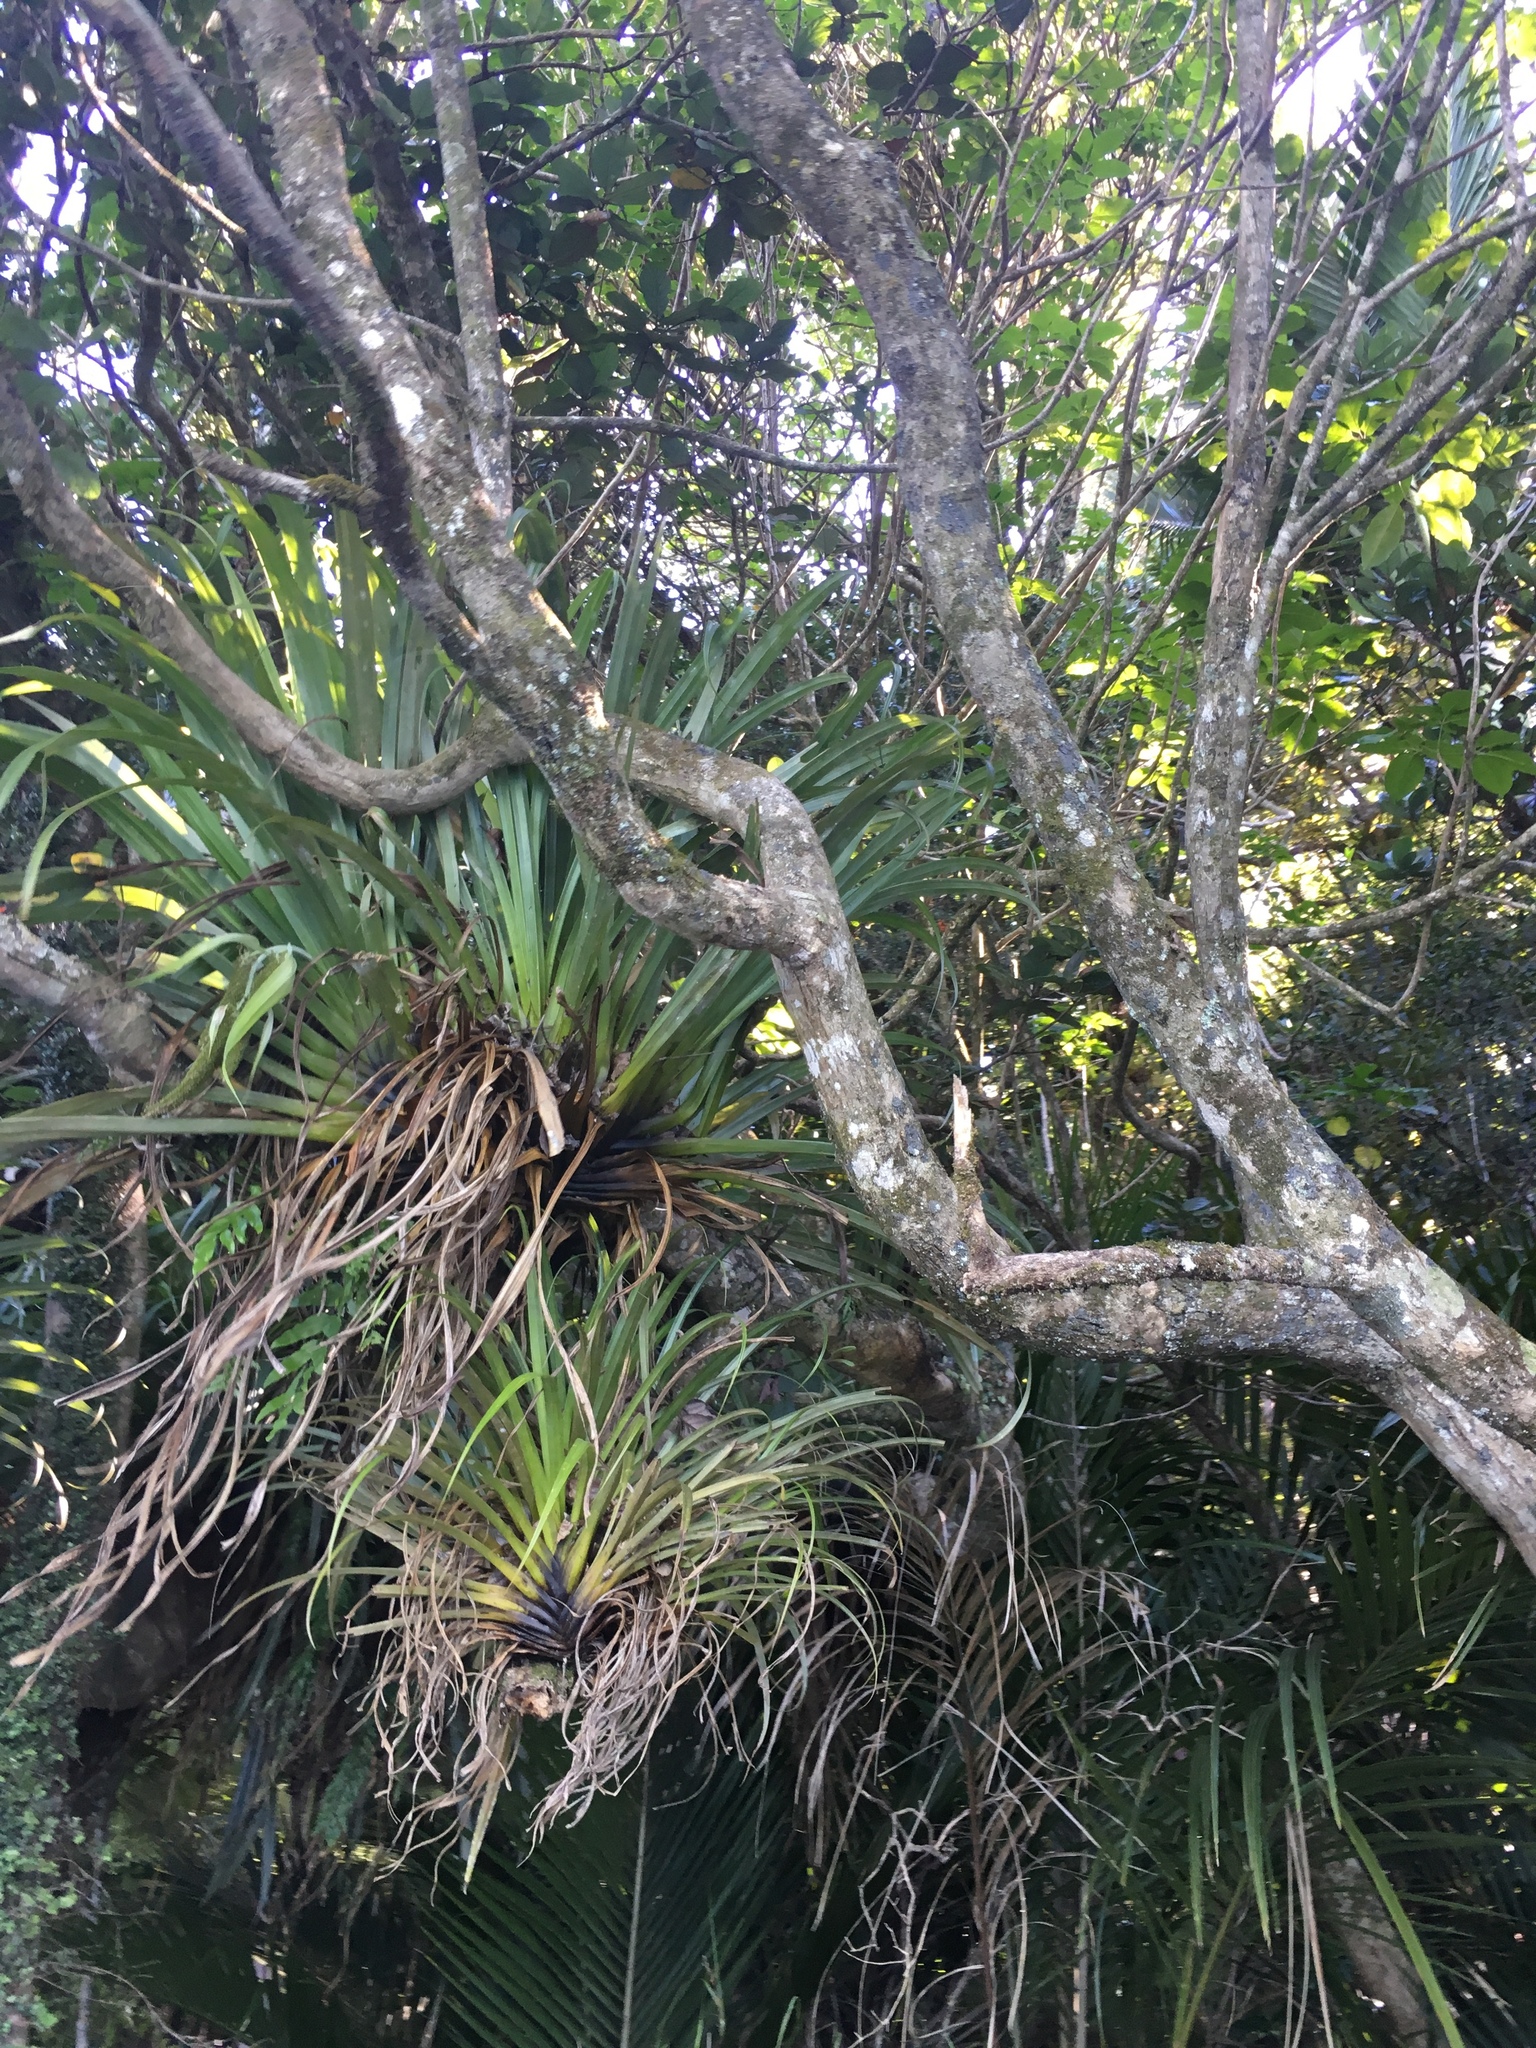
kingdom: Plantae
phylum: Tracheophyta
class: Liliopsida
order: Asparagales
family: Asteliaceae
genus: Astelia
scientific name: Astelia hastata
